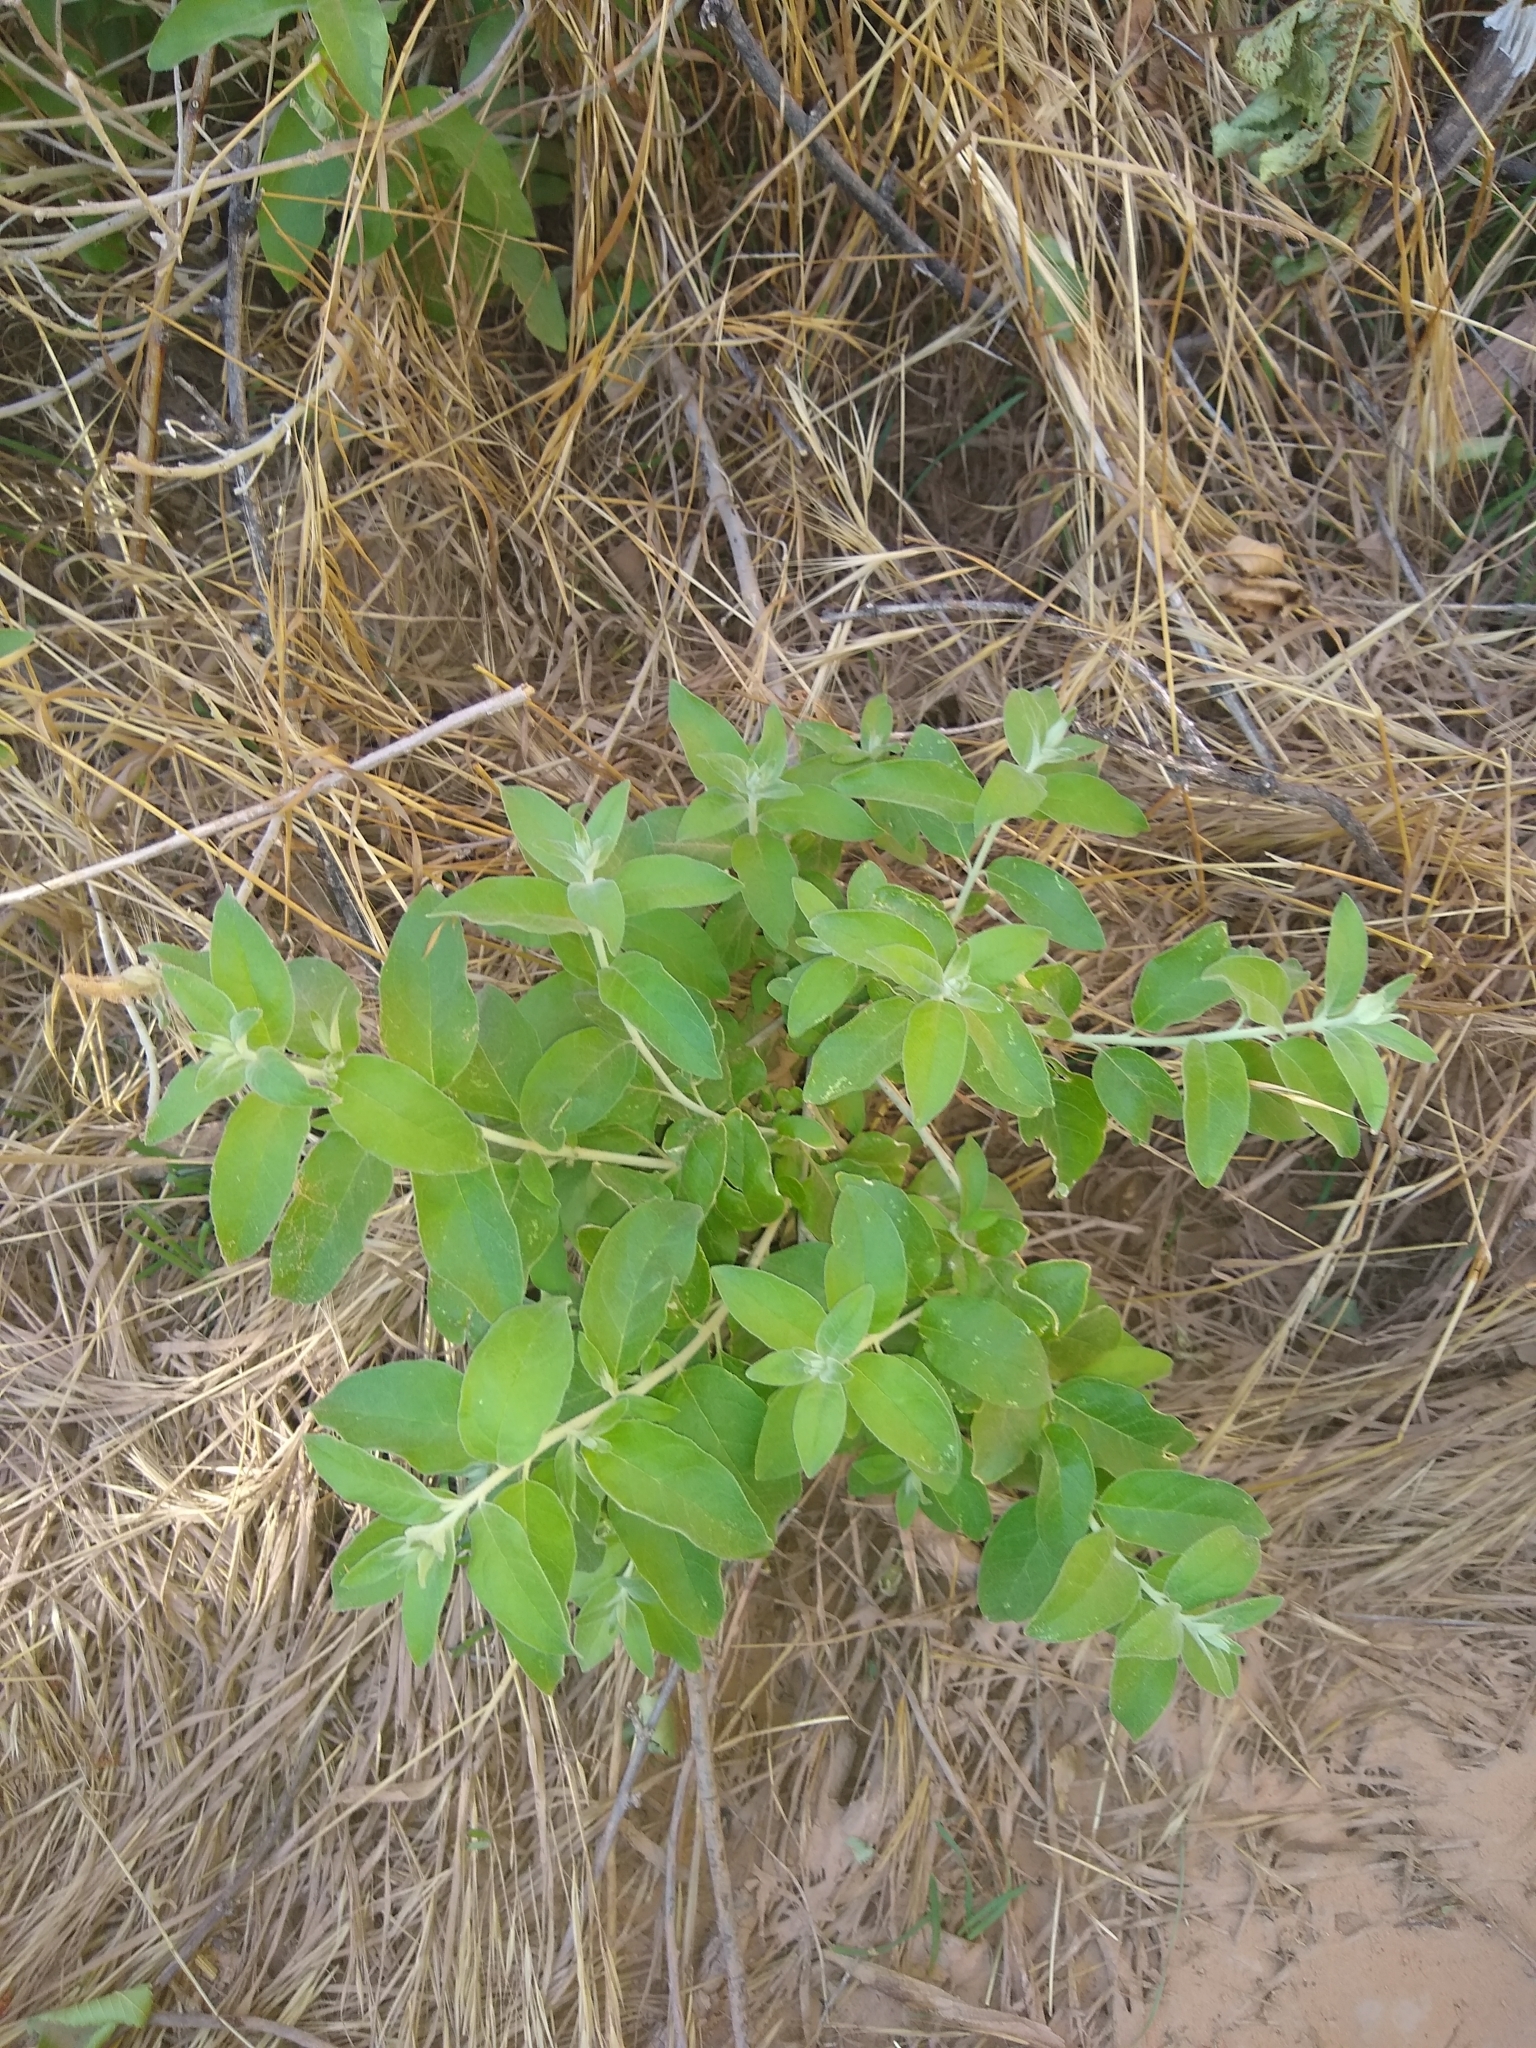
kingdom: Plantae
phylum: Tracheophyta
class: Magnoliopsida
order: Rosales
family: Elaeagnaceae
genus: Elaeagnus
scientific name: Elaeagnus angustifolia
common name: Russian olive
